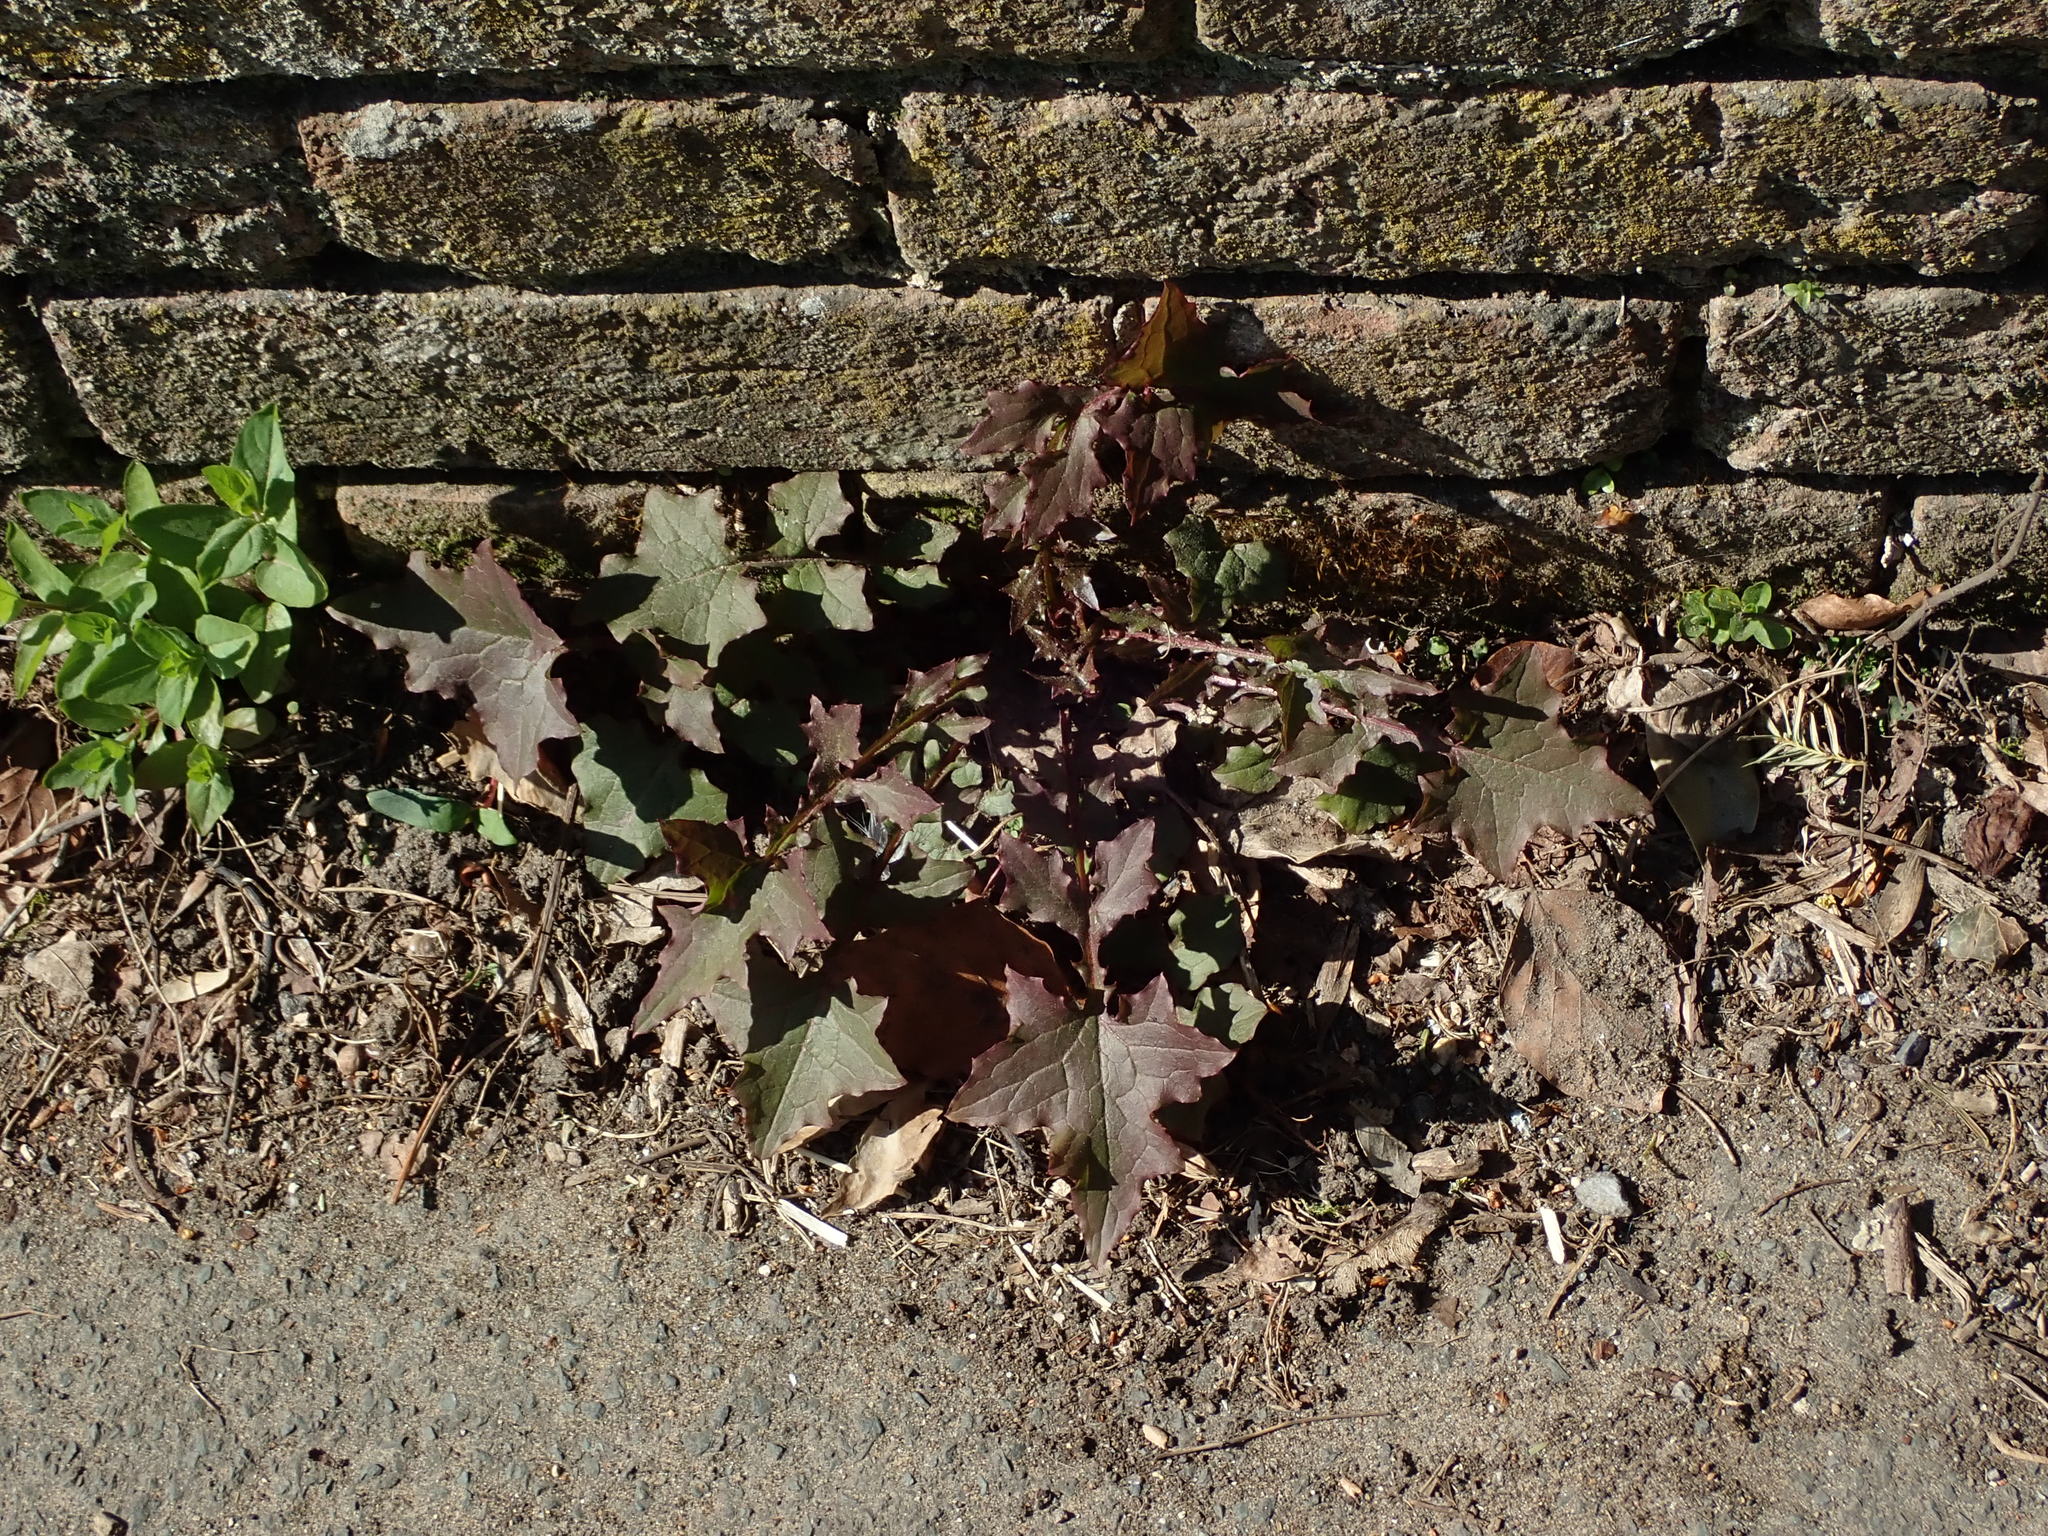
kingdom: Plantae
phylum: Tracheophyta
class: Magnoliopsida
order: Asterales
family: Asteraceae
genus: Mycelis
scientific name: Mycelis muralis
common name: Wall lettuce
